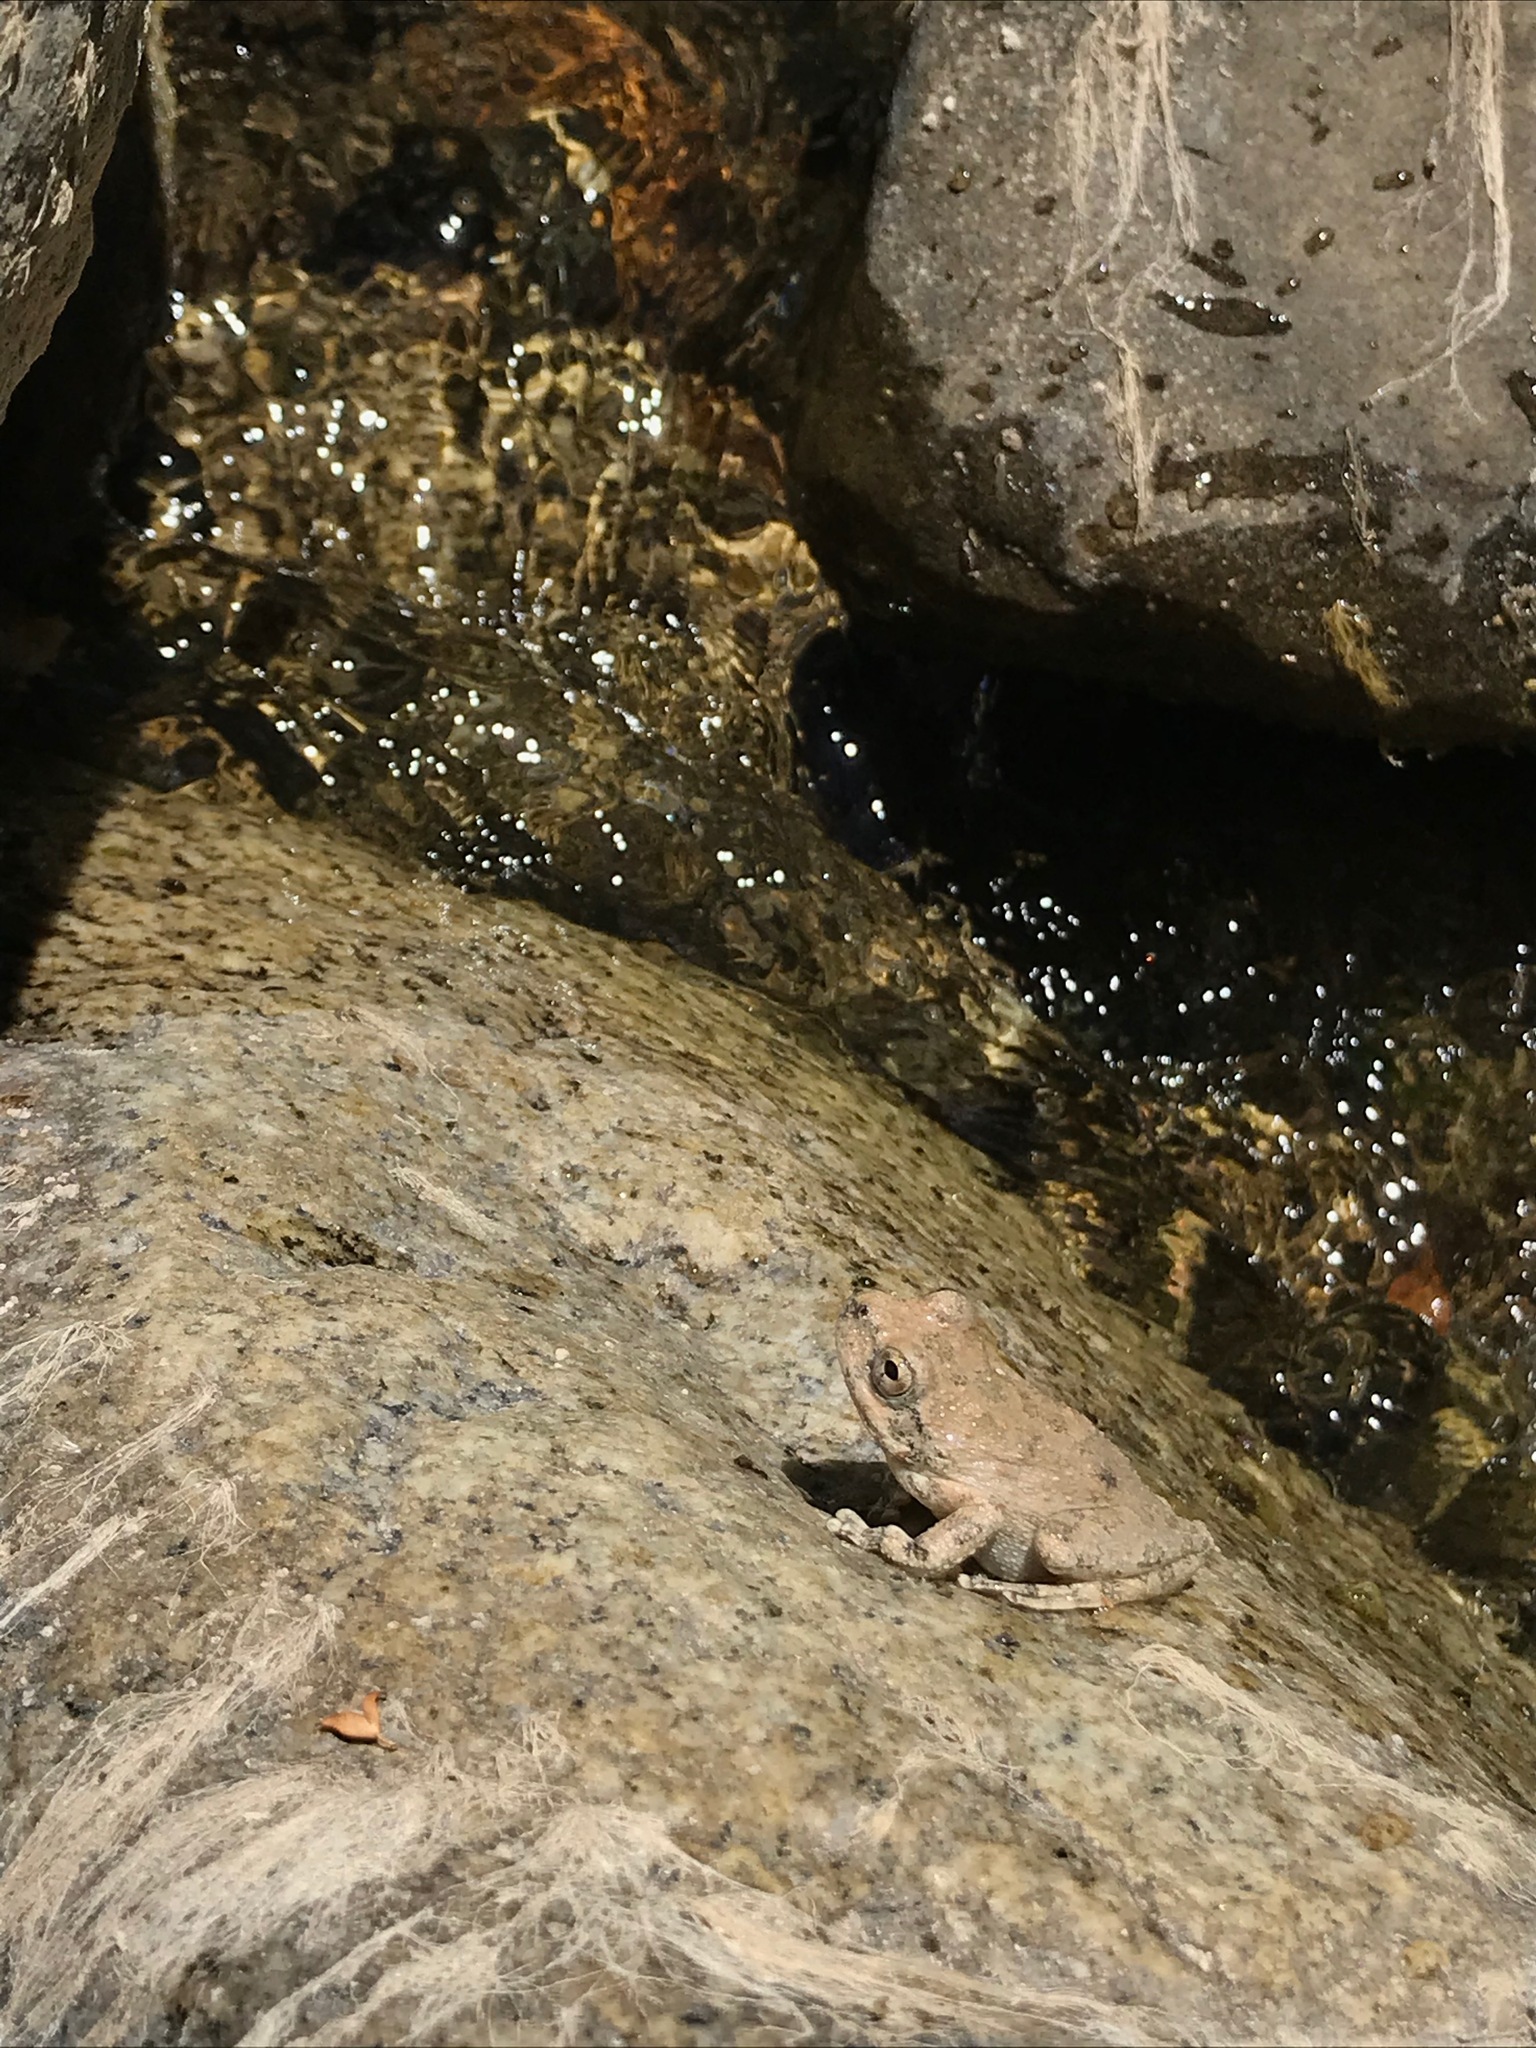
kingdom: Animalia
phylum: Chordata
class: Amphibia
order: Anura
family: Hylidae
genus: Pseudacris
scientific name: Pseudacris cadaverina
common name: California chorus frog
